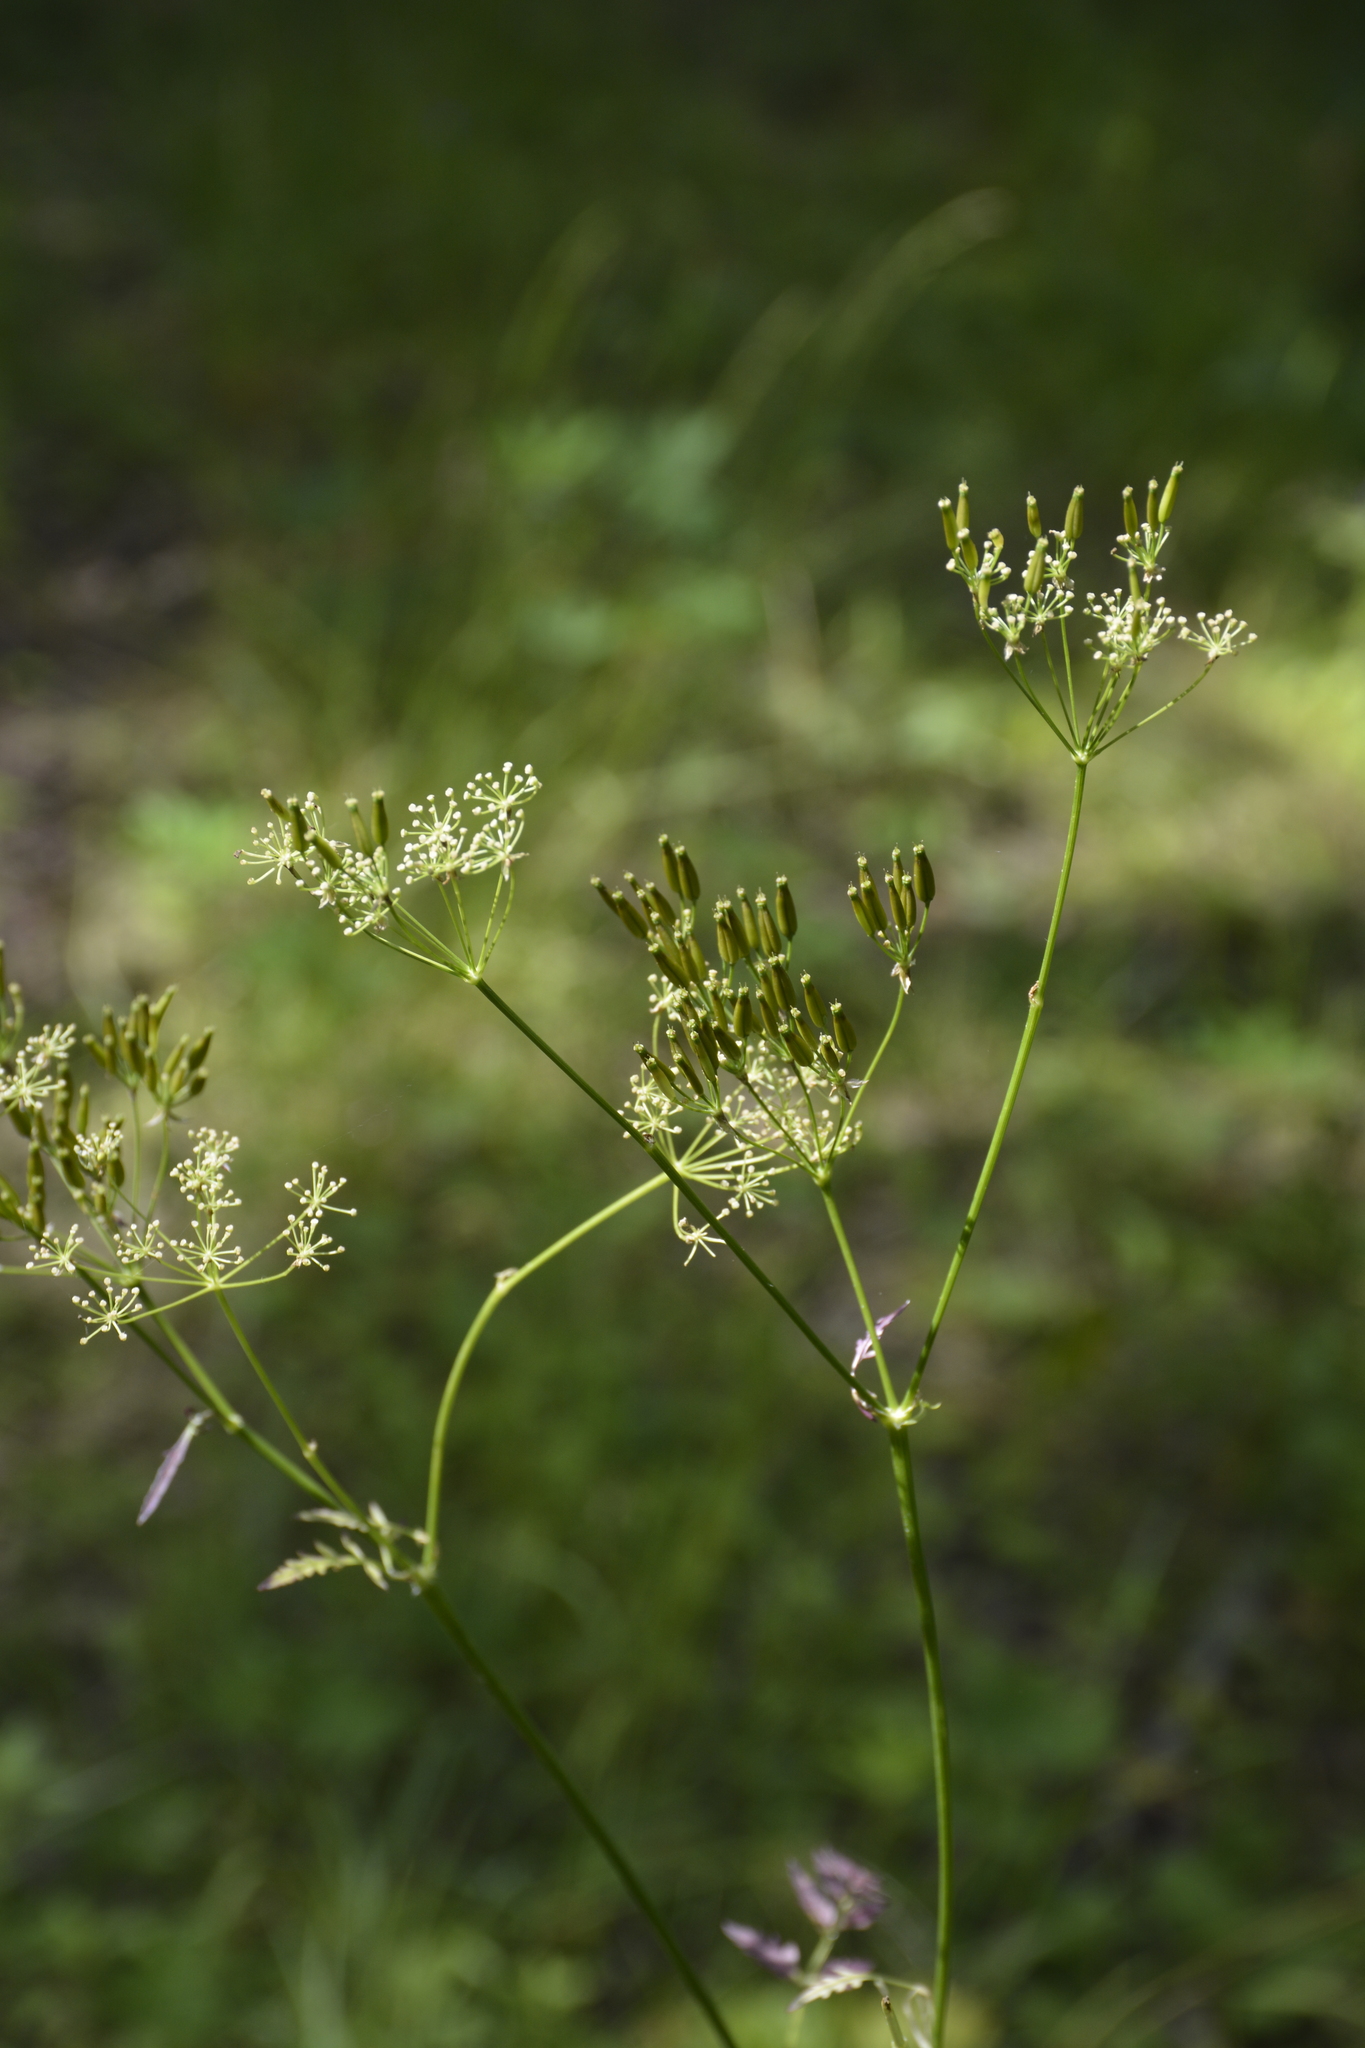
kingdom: Plantae
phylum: Tracheophyta
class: Magnoliopsida
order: Apiales
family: Apiaceae
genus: Anthriscus
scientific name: Anthriscus sylvestris
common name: Cow parsley
